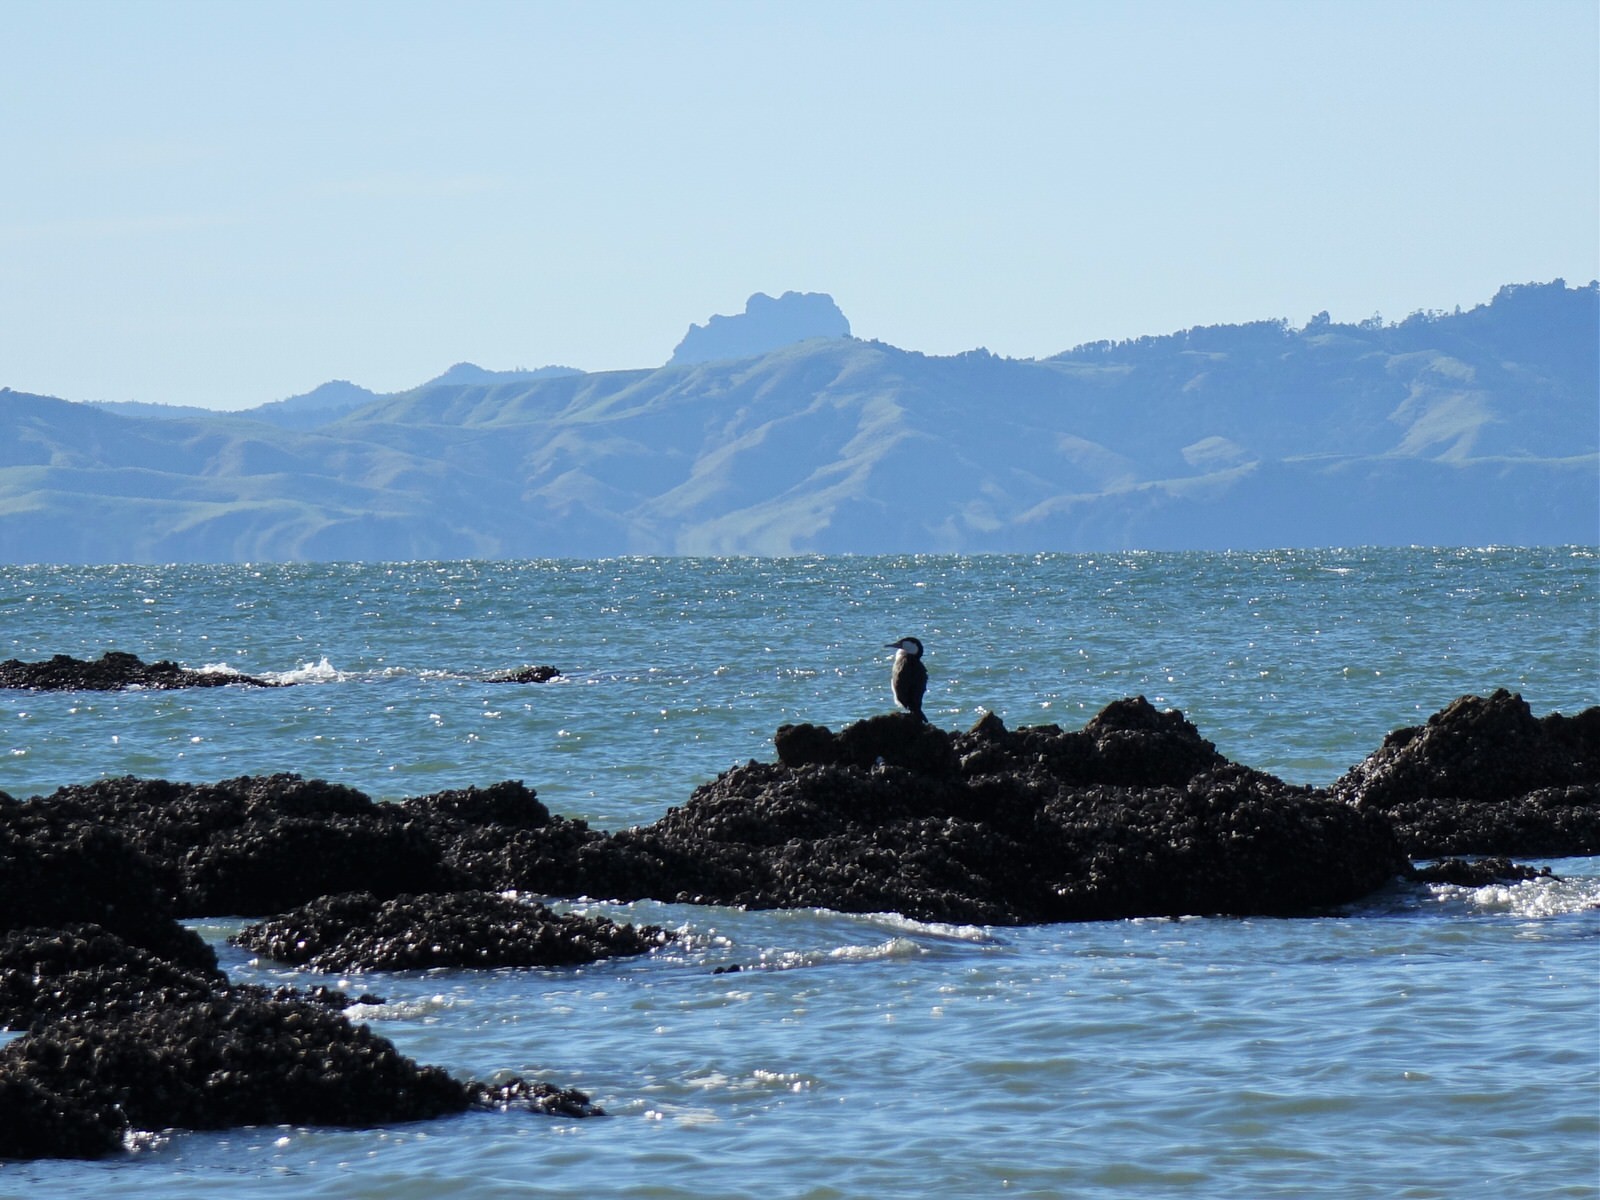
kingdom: Animalia
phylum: Chordata
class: Aves
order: Suliformes
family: Phalacrocoracidae
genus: Phalacrocorax
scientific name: Phalacrocorax varius
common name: Pied cormorant
